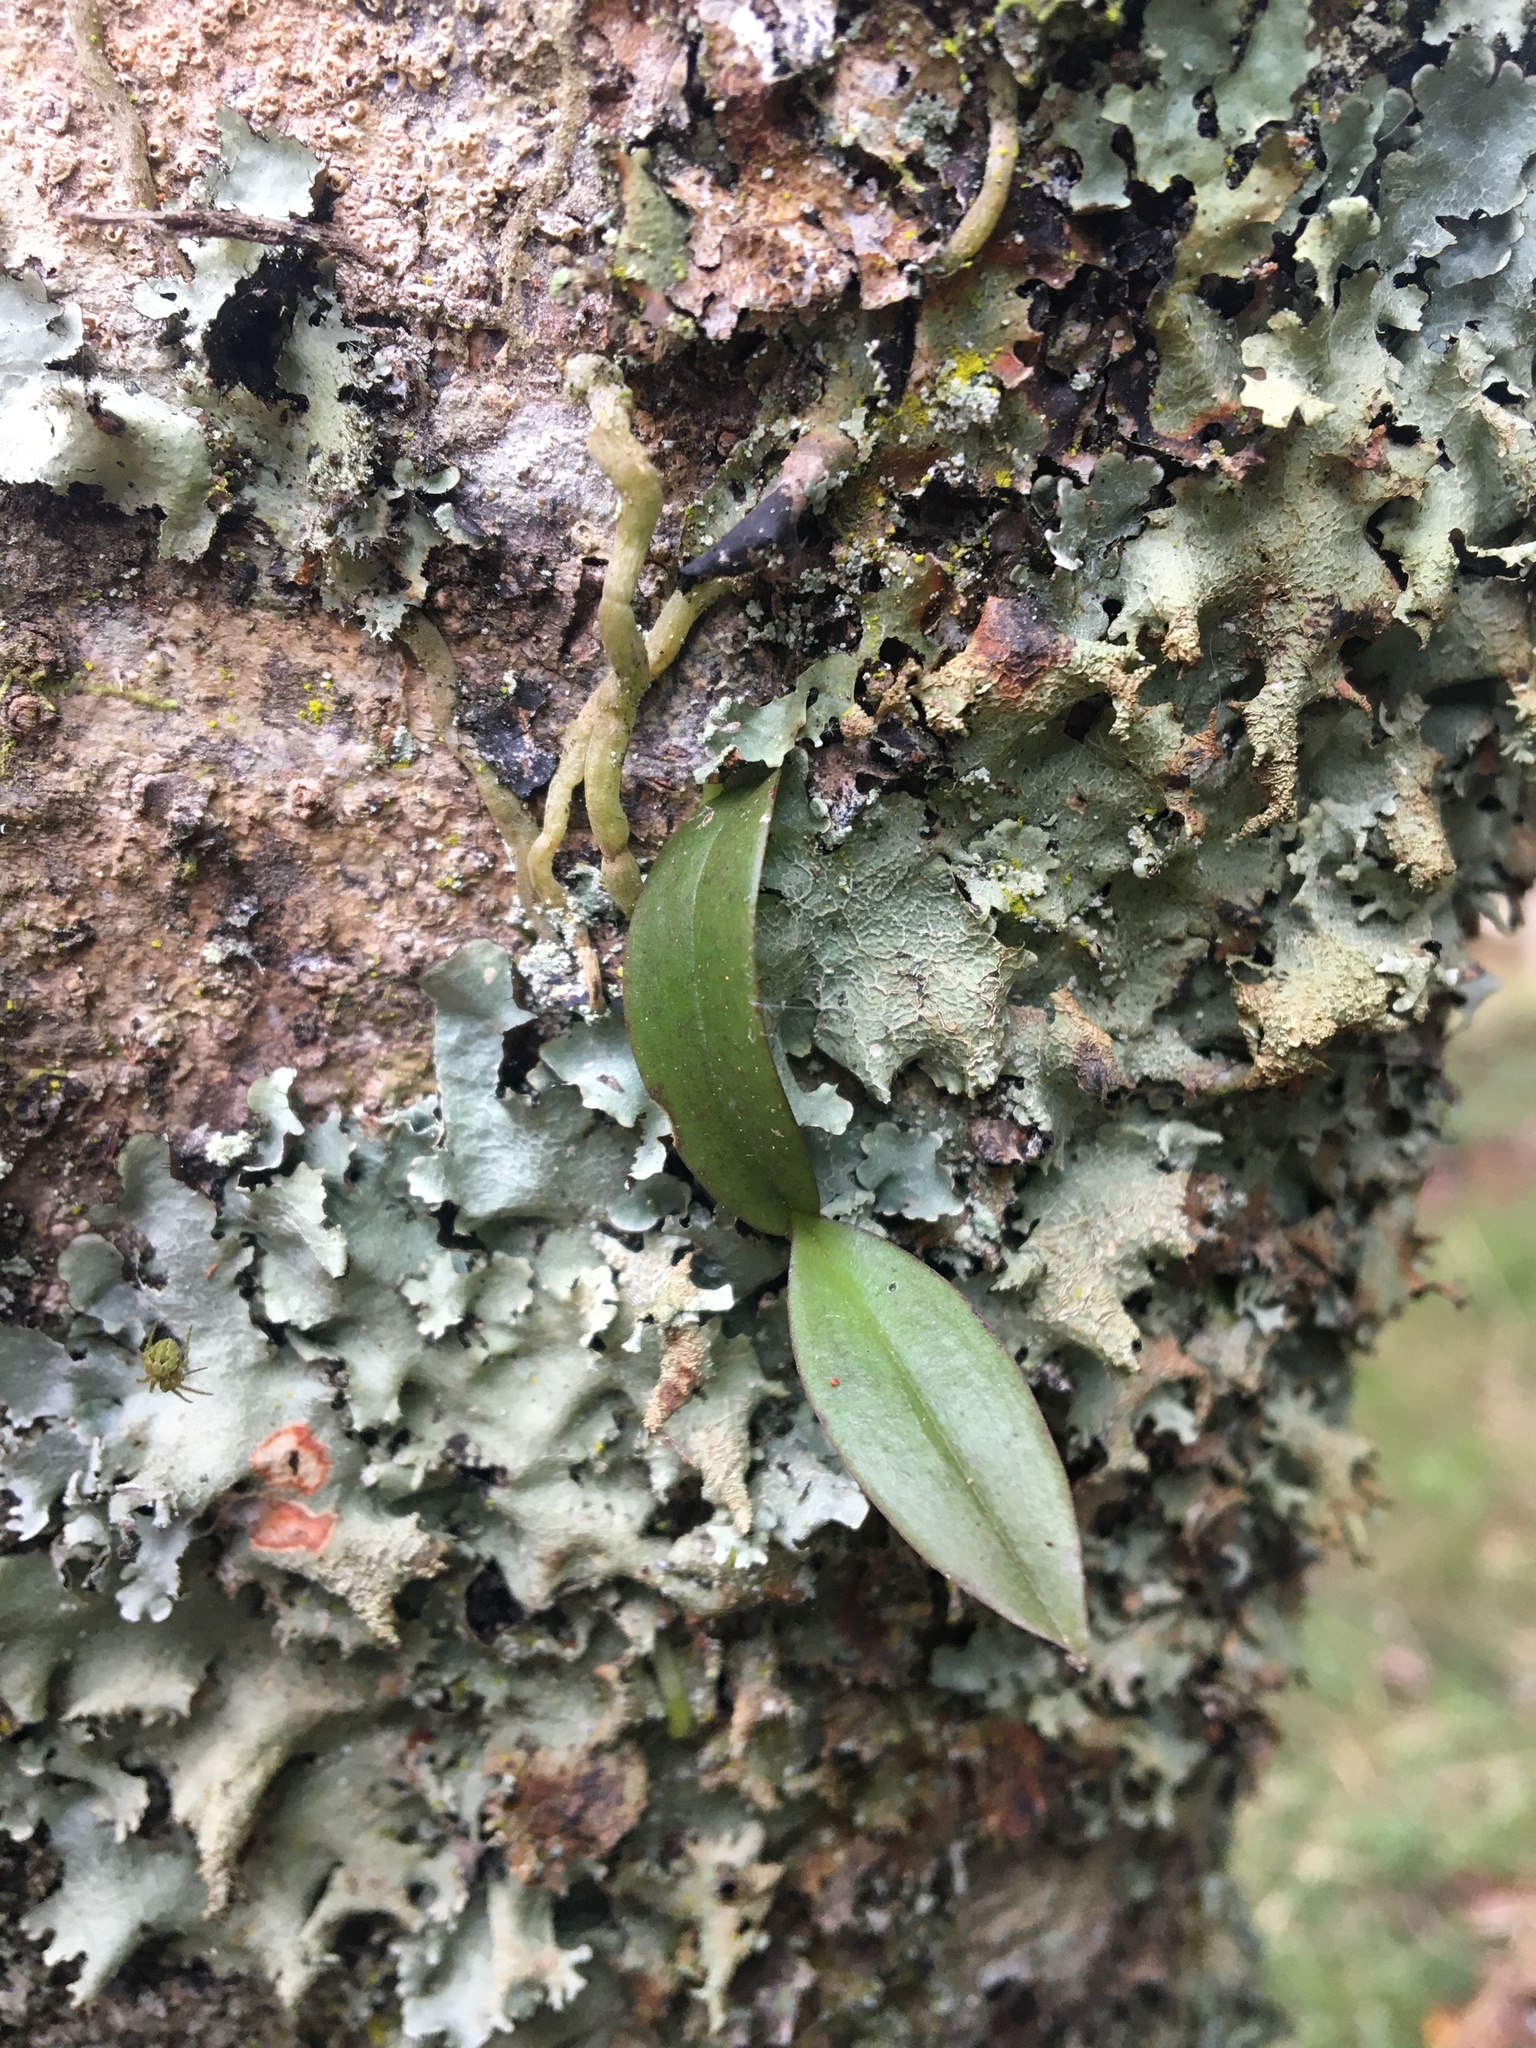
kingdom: Plantae
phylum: Tracheophyta
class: Liliopsida
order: Asparagales
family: Orchidaceae
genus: Drymoanthus
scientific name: Drymoanthus adversus
